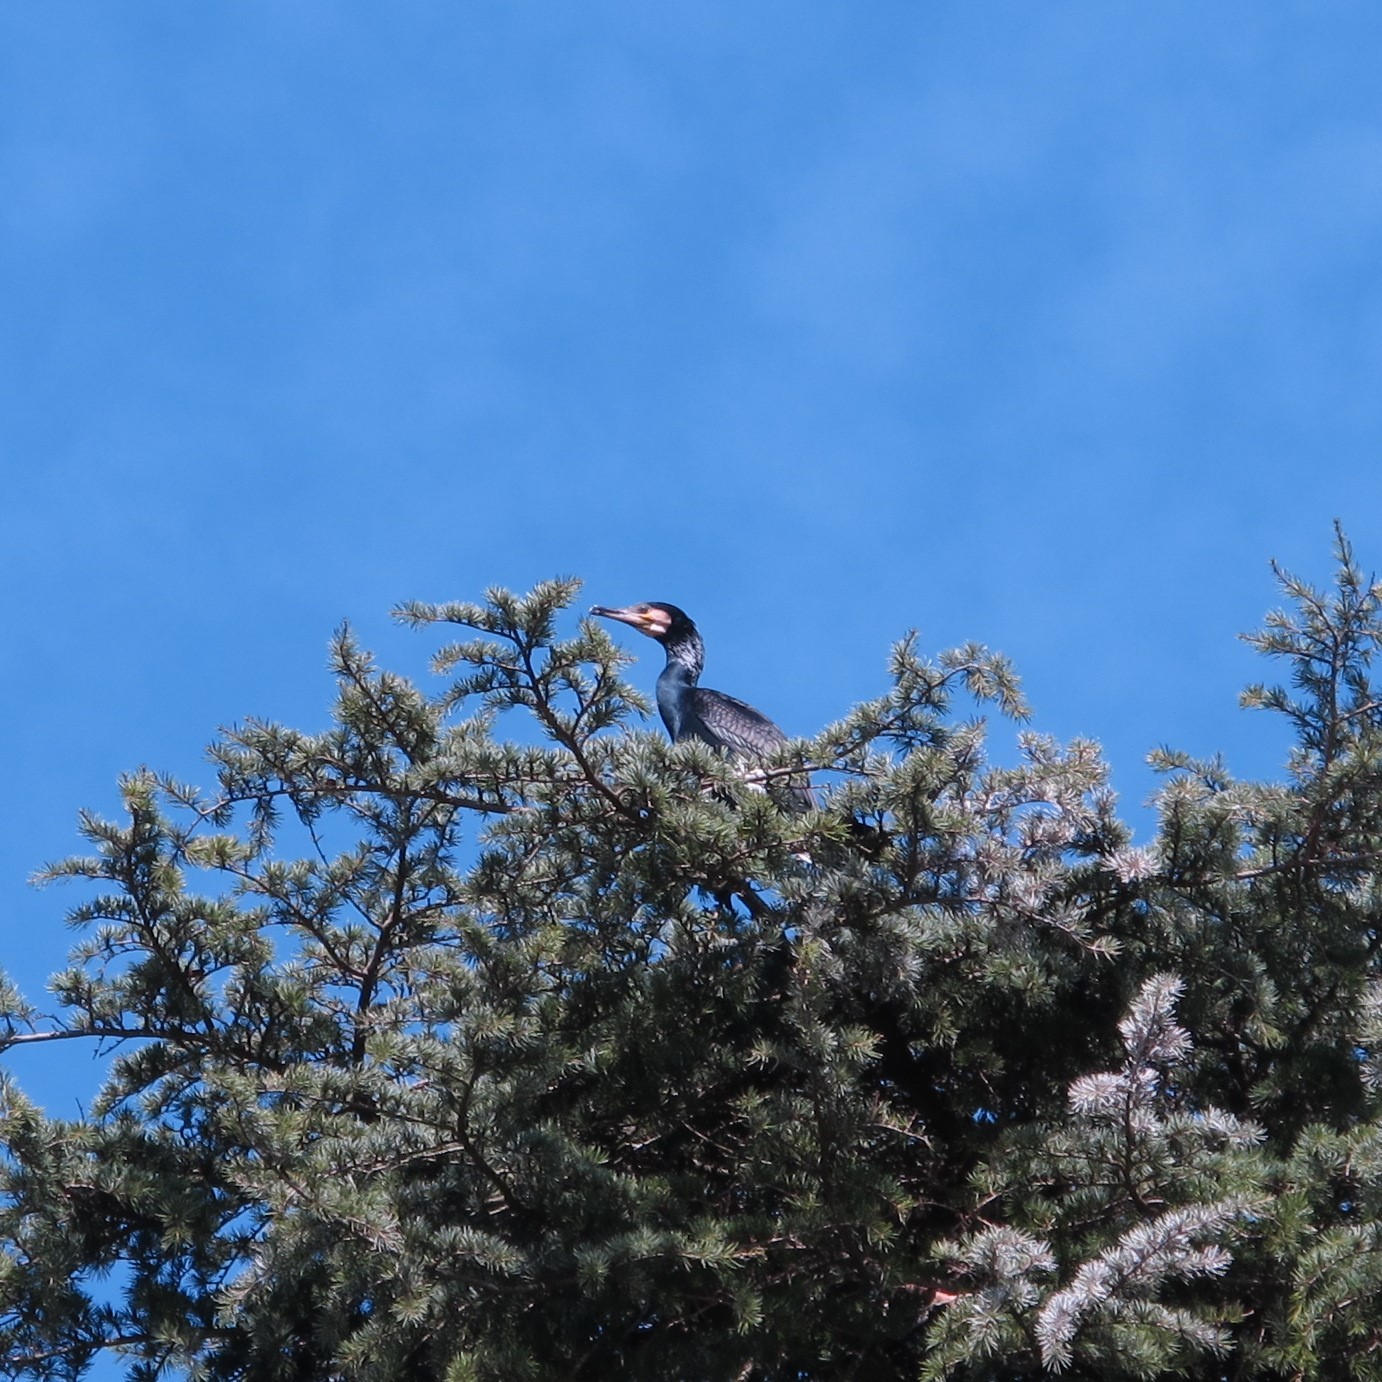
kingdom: Animalia
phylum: Chordata
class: Aves
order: Suliformes
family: Phalacrocoracidae
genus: Phalacrocorax
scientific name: Phalacrocorax carbo
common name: Great cormorant
